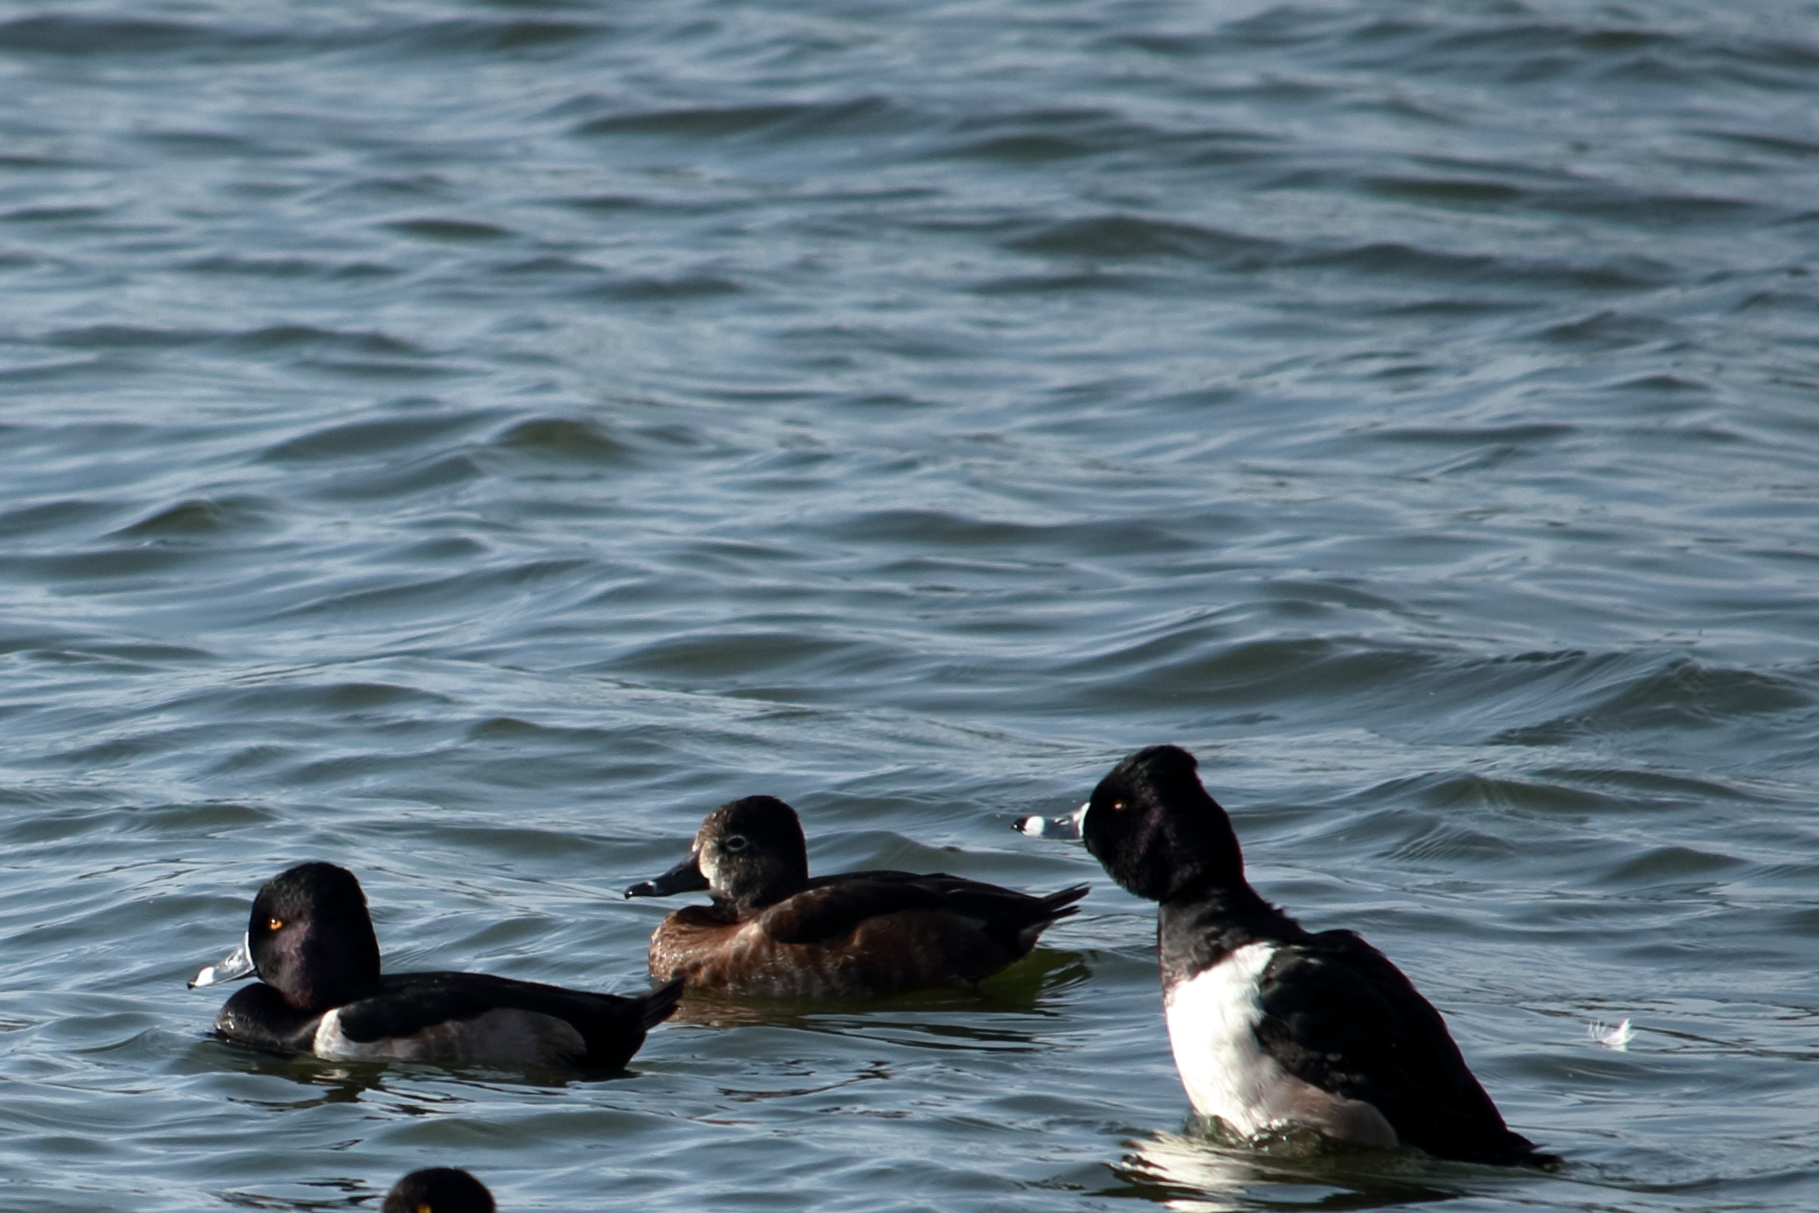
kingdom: Animalia
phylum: Chordata
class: Aves
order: Anseriformes
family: Anatidae
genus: Aythya
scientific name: Aythya collaris
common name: Ring-necked duck
